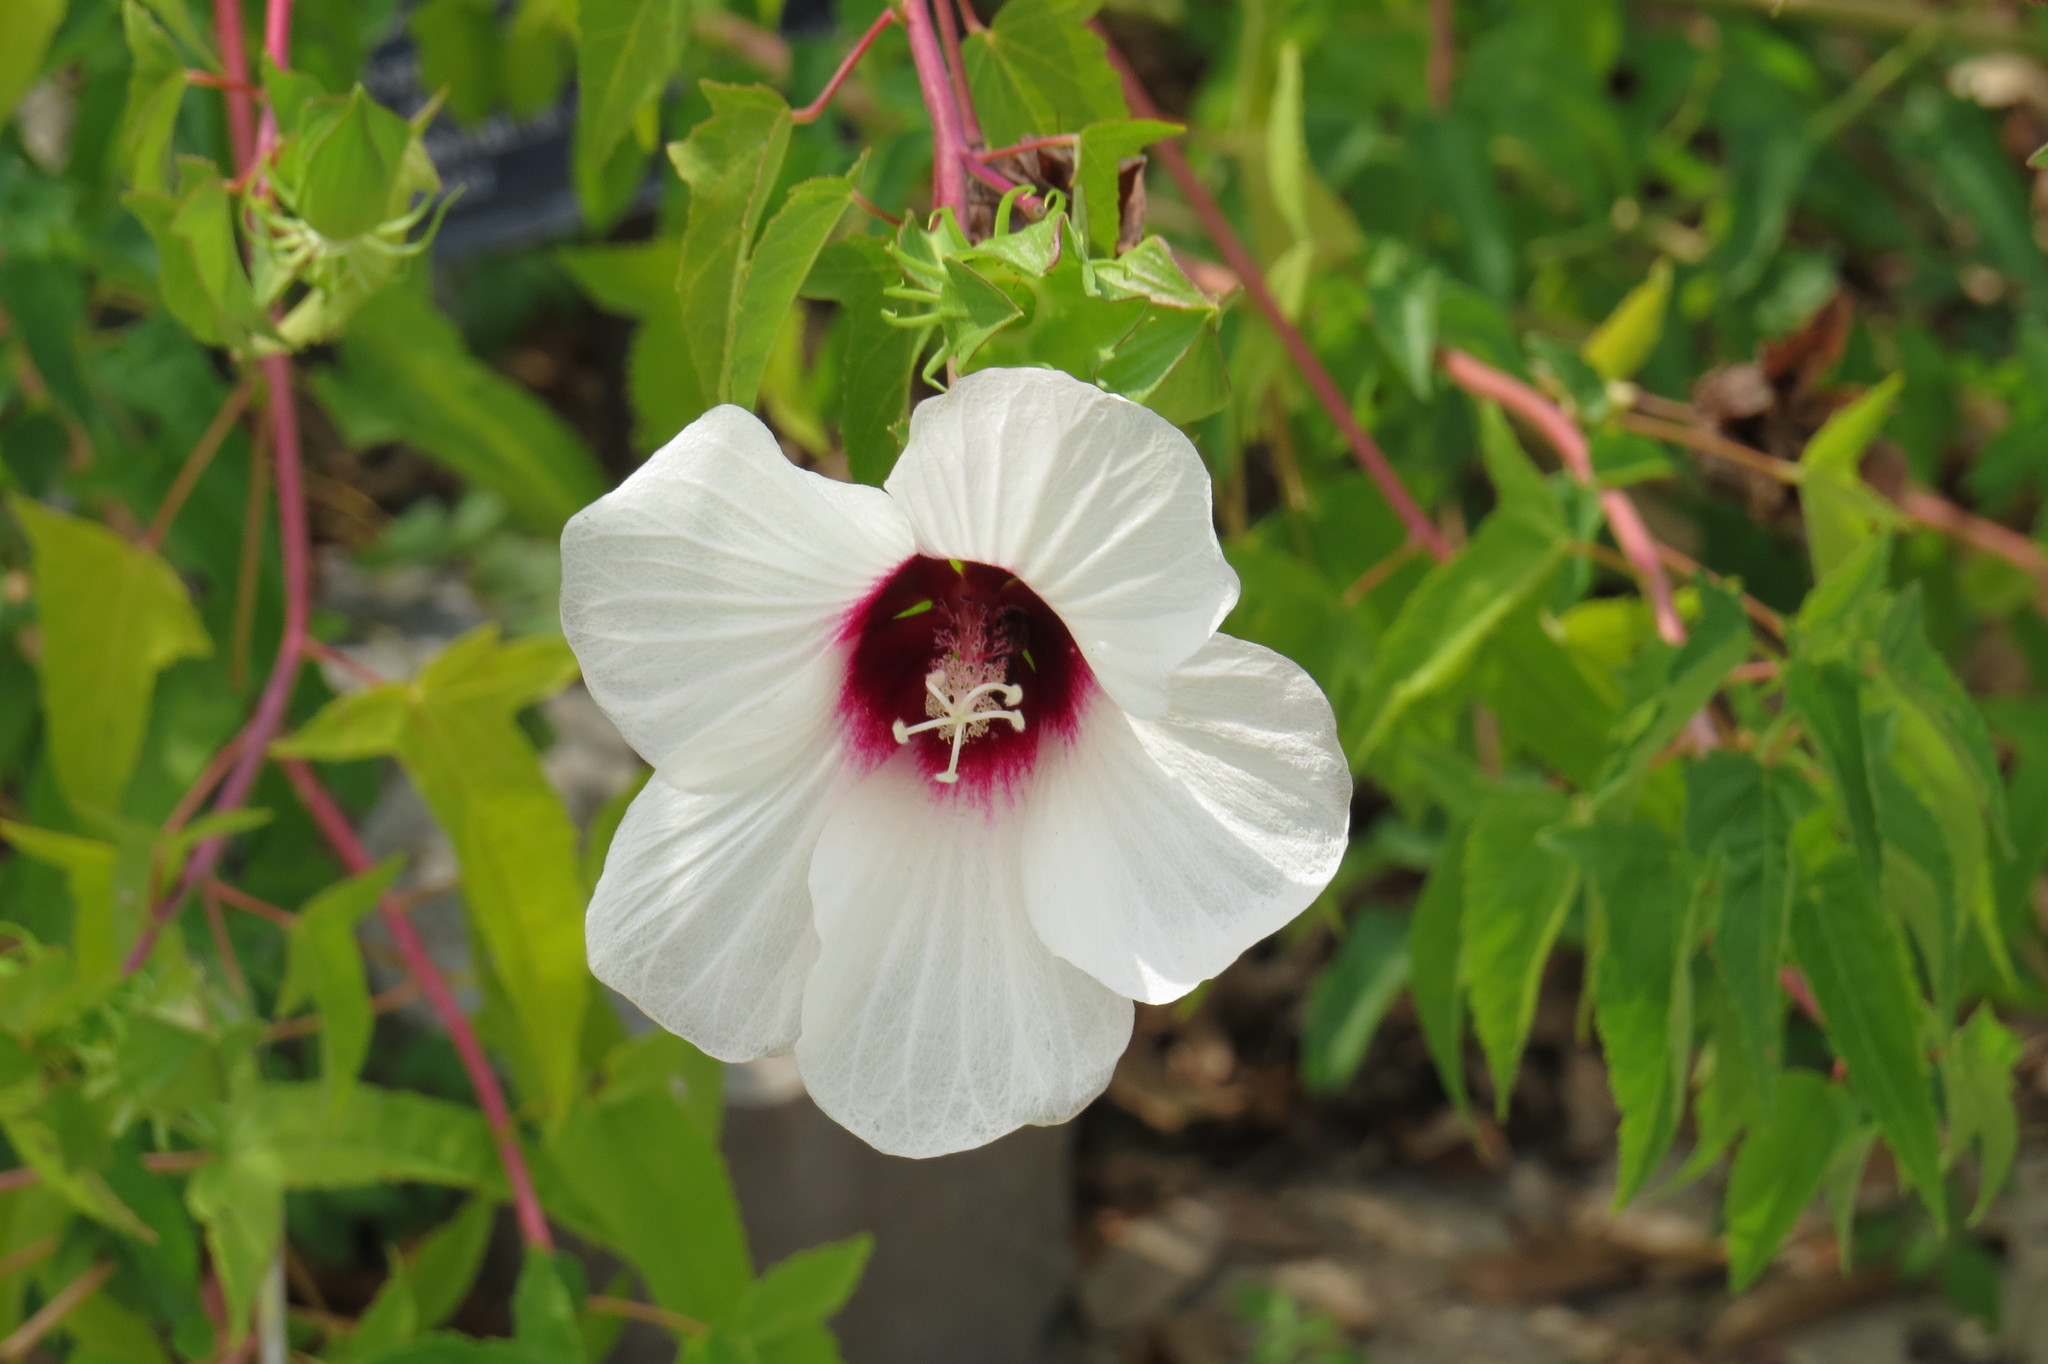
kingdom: Plantae
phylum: Tracheophyta
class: Magnoliopsida
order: Malvales
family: Malvaceae
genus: Hibiscus
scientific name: Hibiscus laevis
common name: Scarlet rose-mallow
